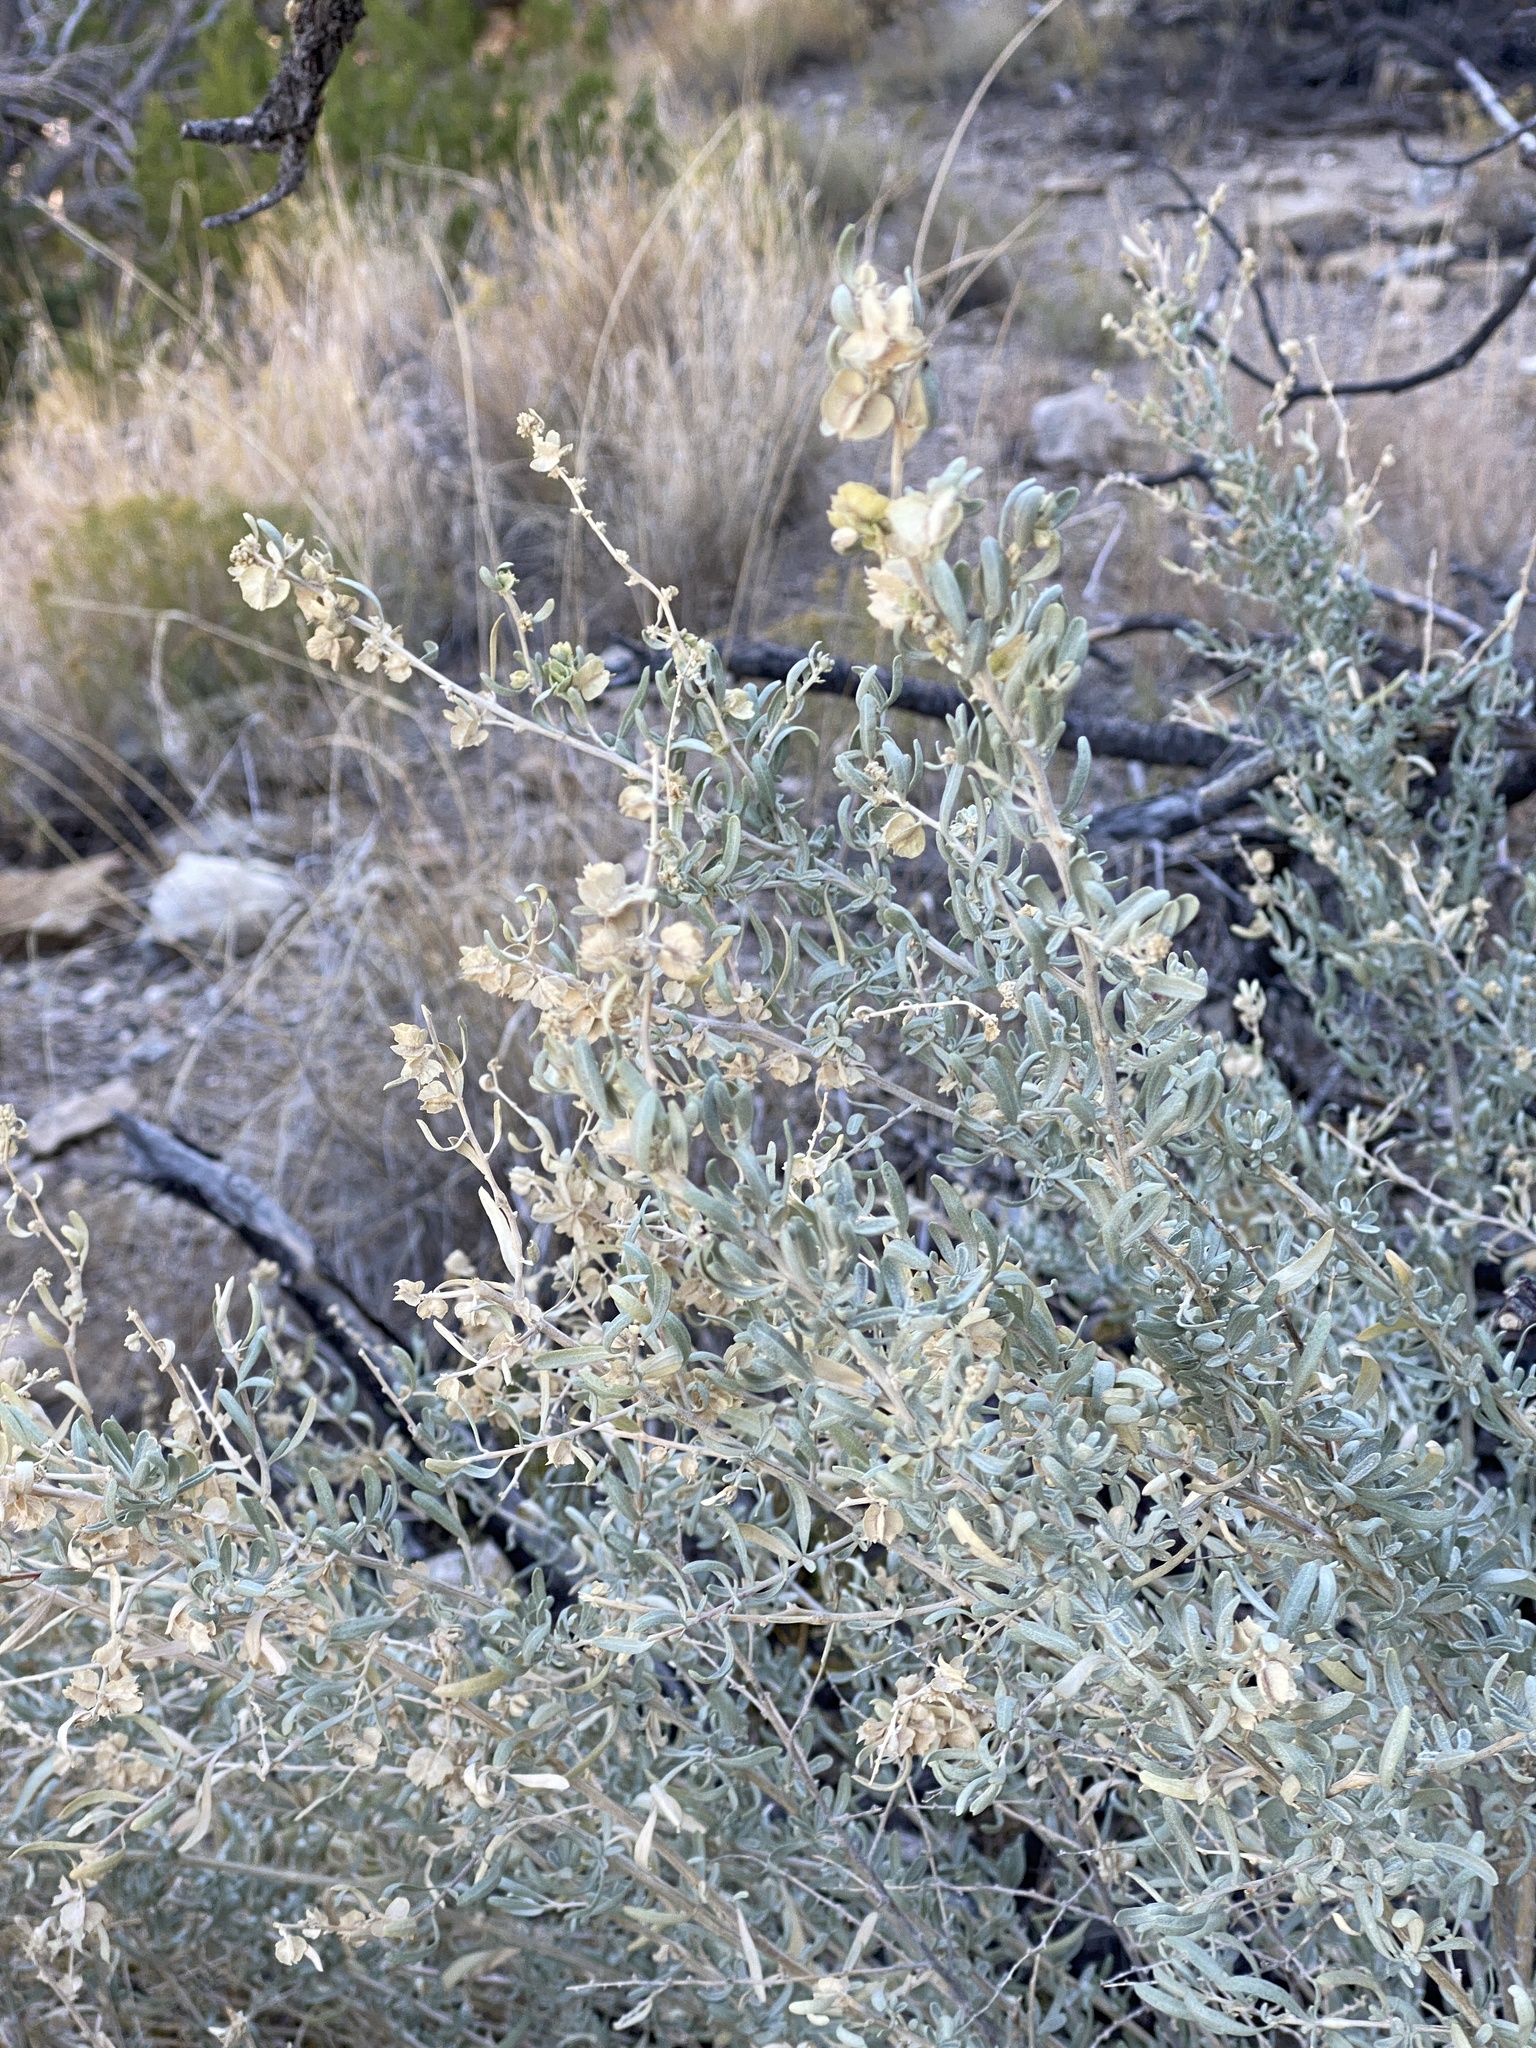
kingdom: Plantae
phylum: Tracheophyta
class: Magnoliopsida
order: Caryophyllales
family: Amaranthaceae
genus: Atriplex
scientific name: Atriplex canescens
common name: Four-wing saltbush
